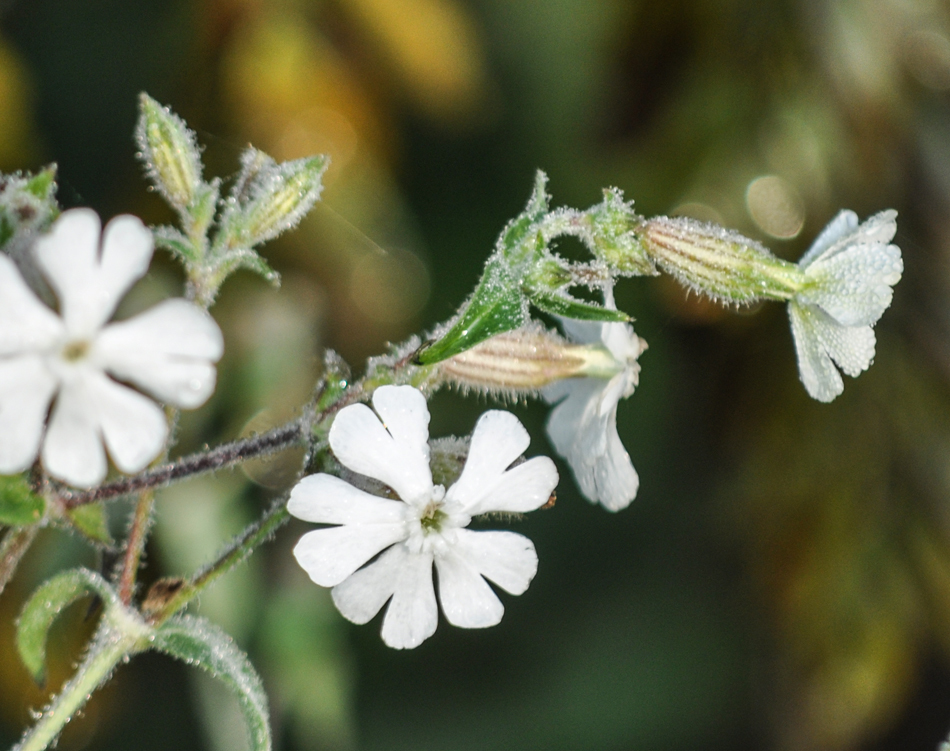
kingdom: Plantae
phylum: Tracheophyta
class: Magnoliopsida
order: Caryophyllales
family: Caryophyllaceae
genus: Silene
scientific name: Silene latifolia
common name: White campion
